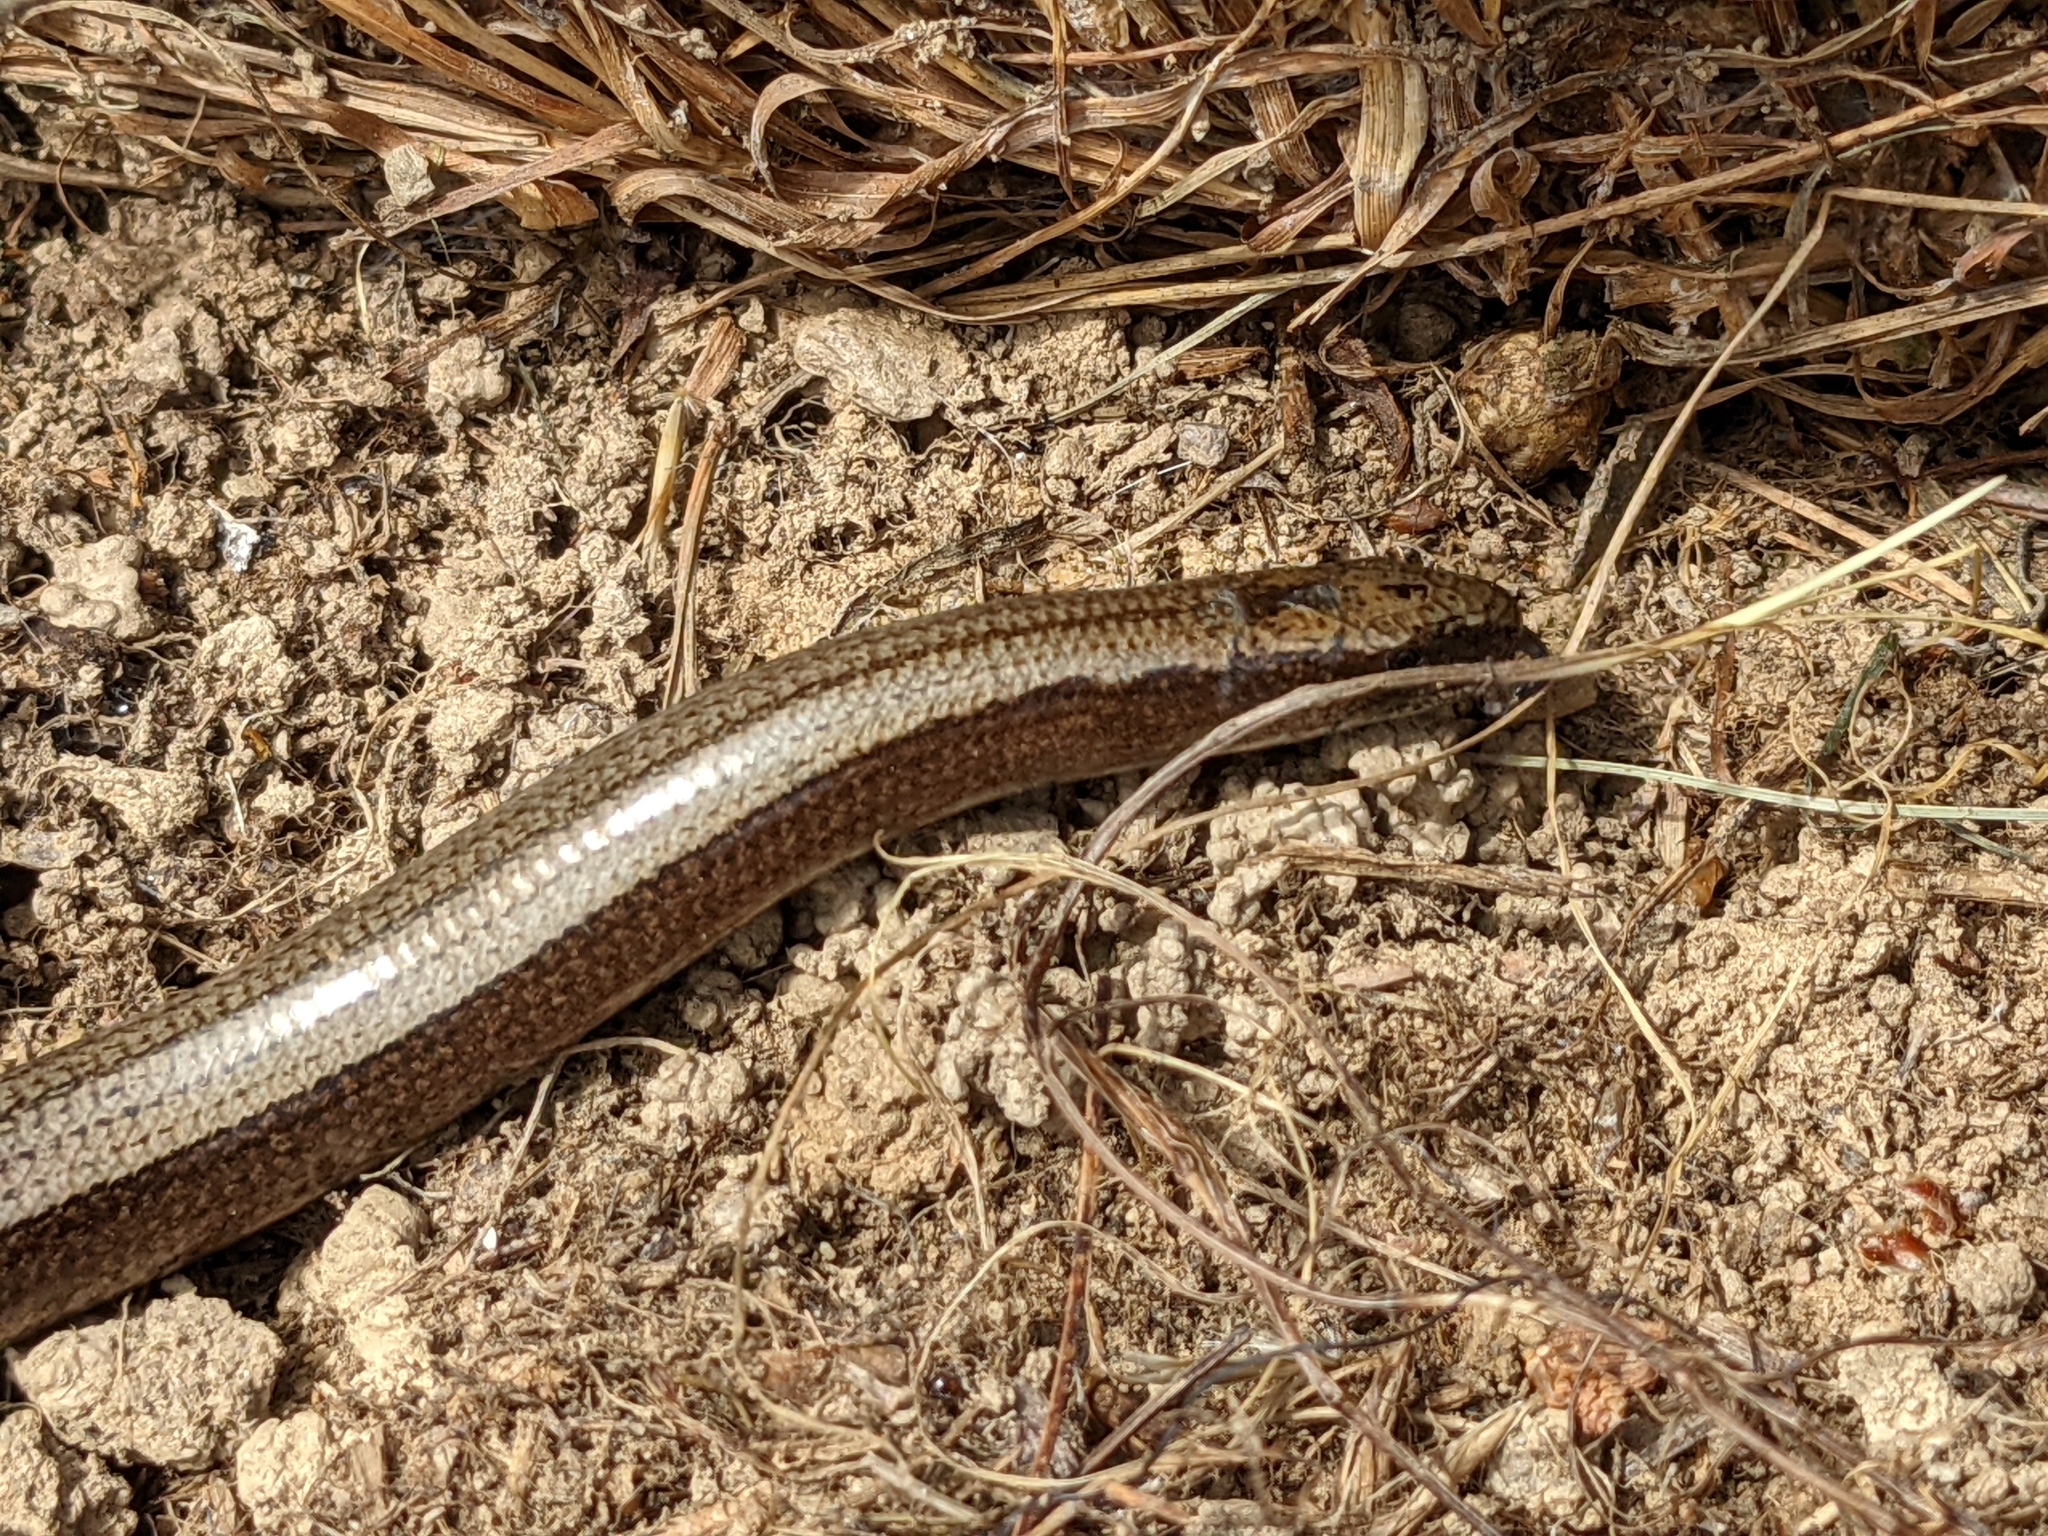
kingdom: Animalia
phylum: Chordata
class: Squamata
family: Anguidae
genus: Anguis
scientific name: Anguis fragilis
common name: Slow worm
